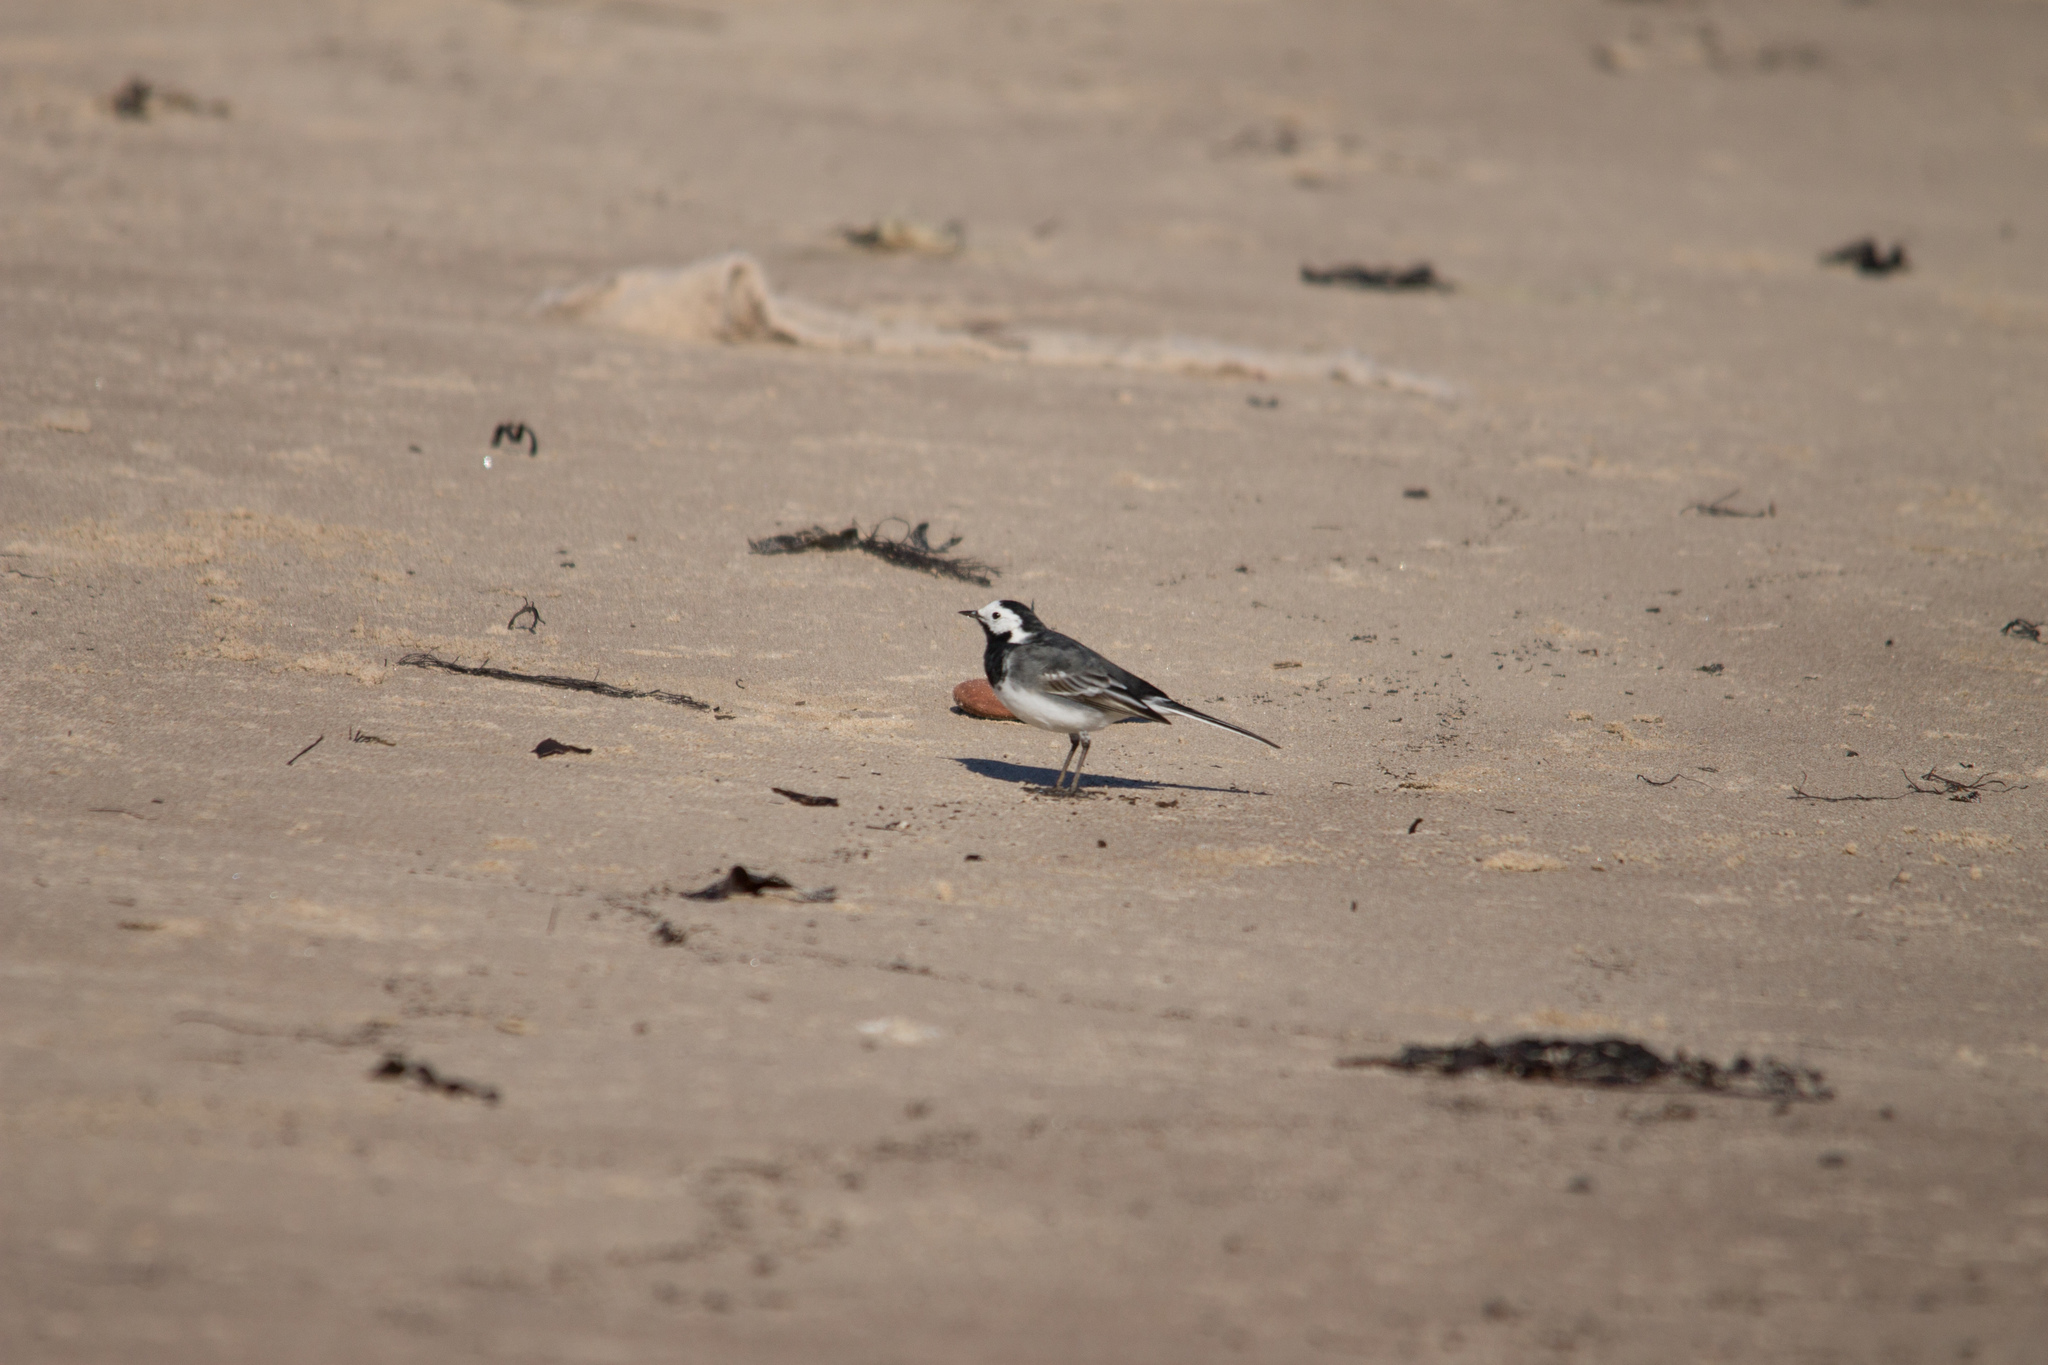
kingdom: Animalia
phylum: Chordata
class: Aves
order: Passeriformes
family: Motacillidae
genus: Motacilla
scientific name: Motacilla alba
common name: White wagtail
